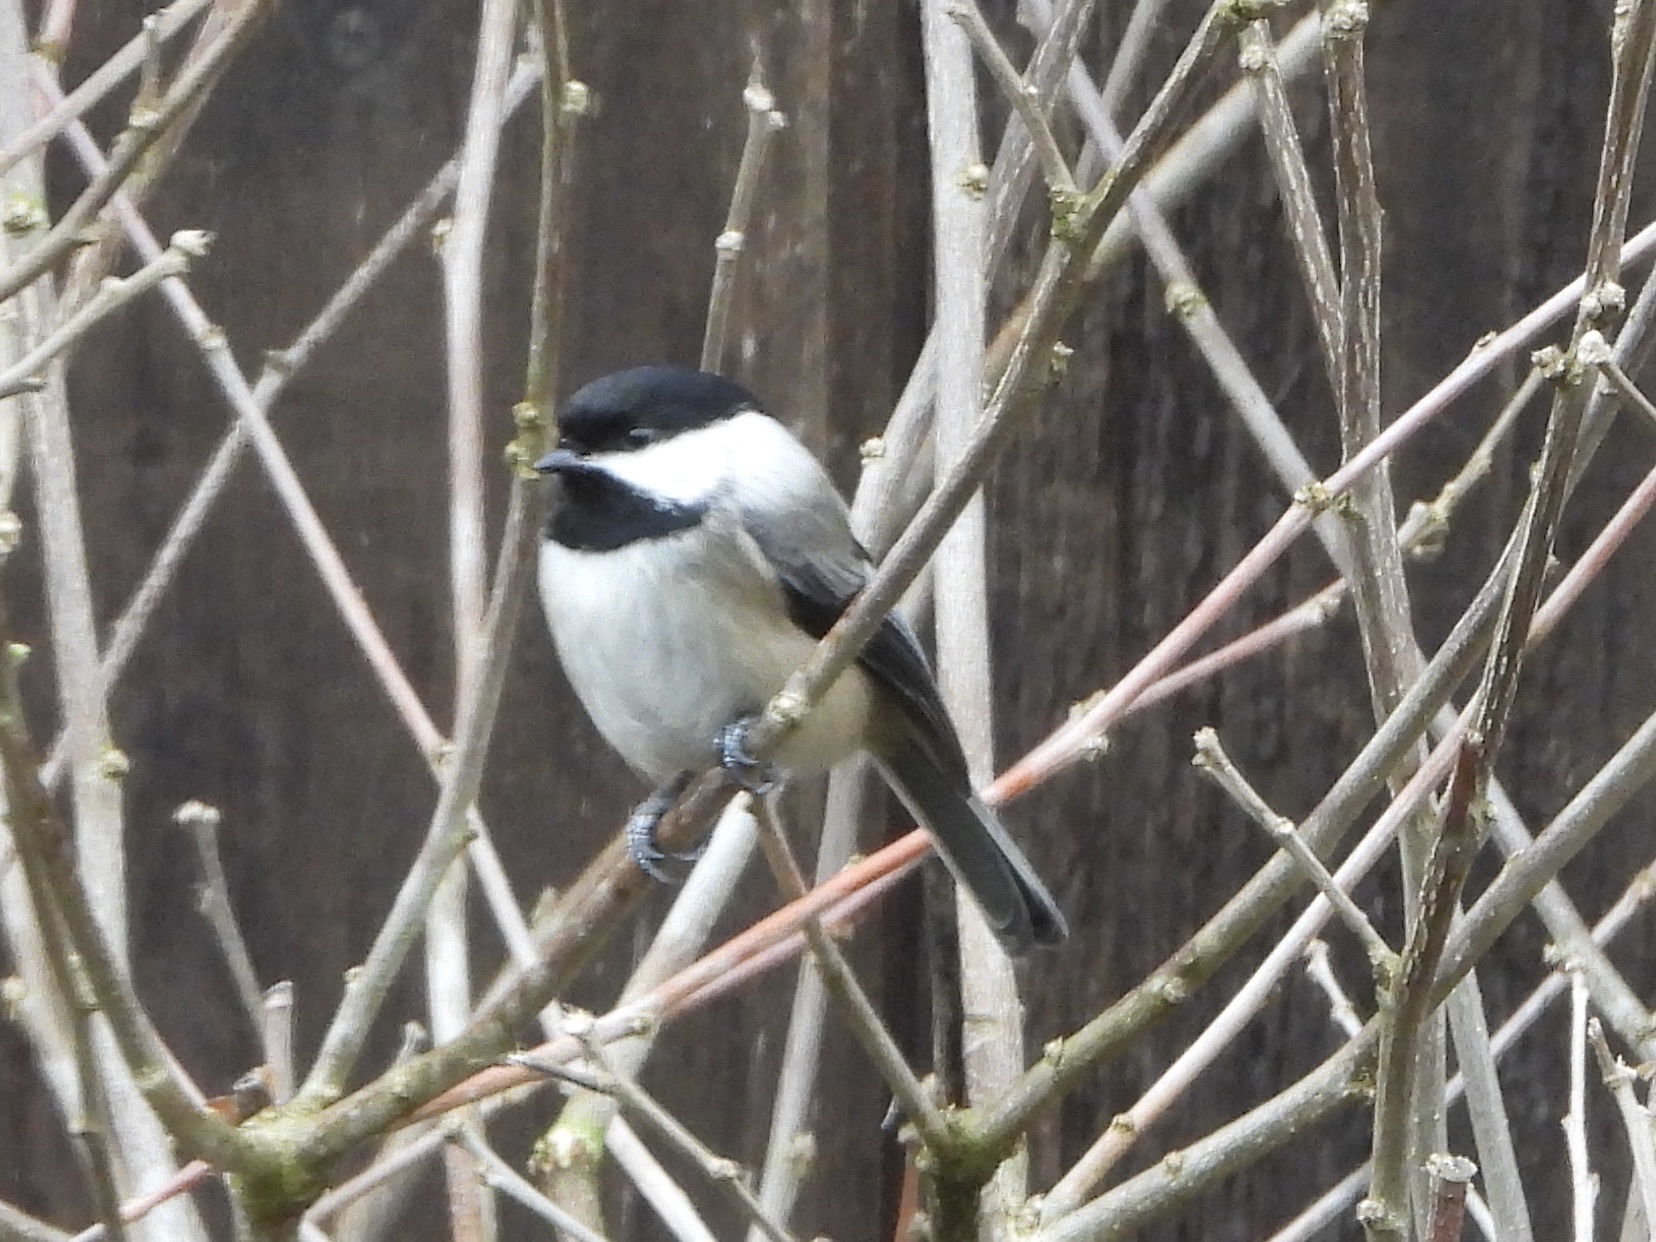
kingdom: Animalia
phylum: Chordata
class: Aves
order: Passeriformes
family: Paridae
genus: Poecile
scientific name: Poecile atricapillus
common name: Black-capped chickadee
